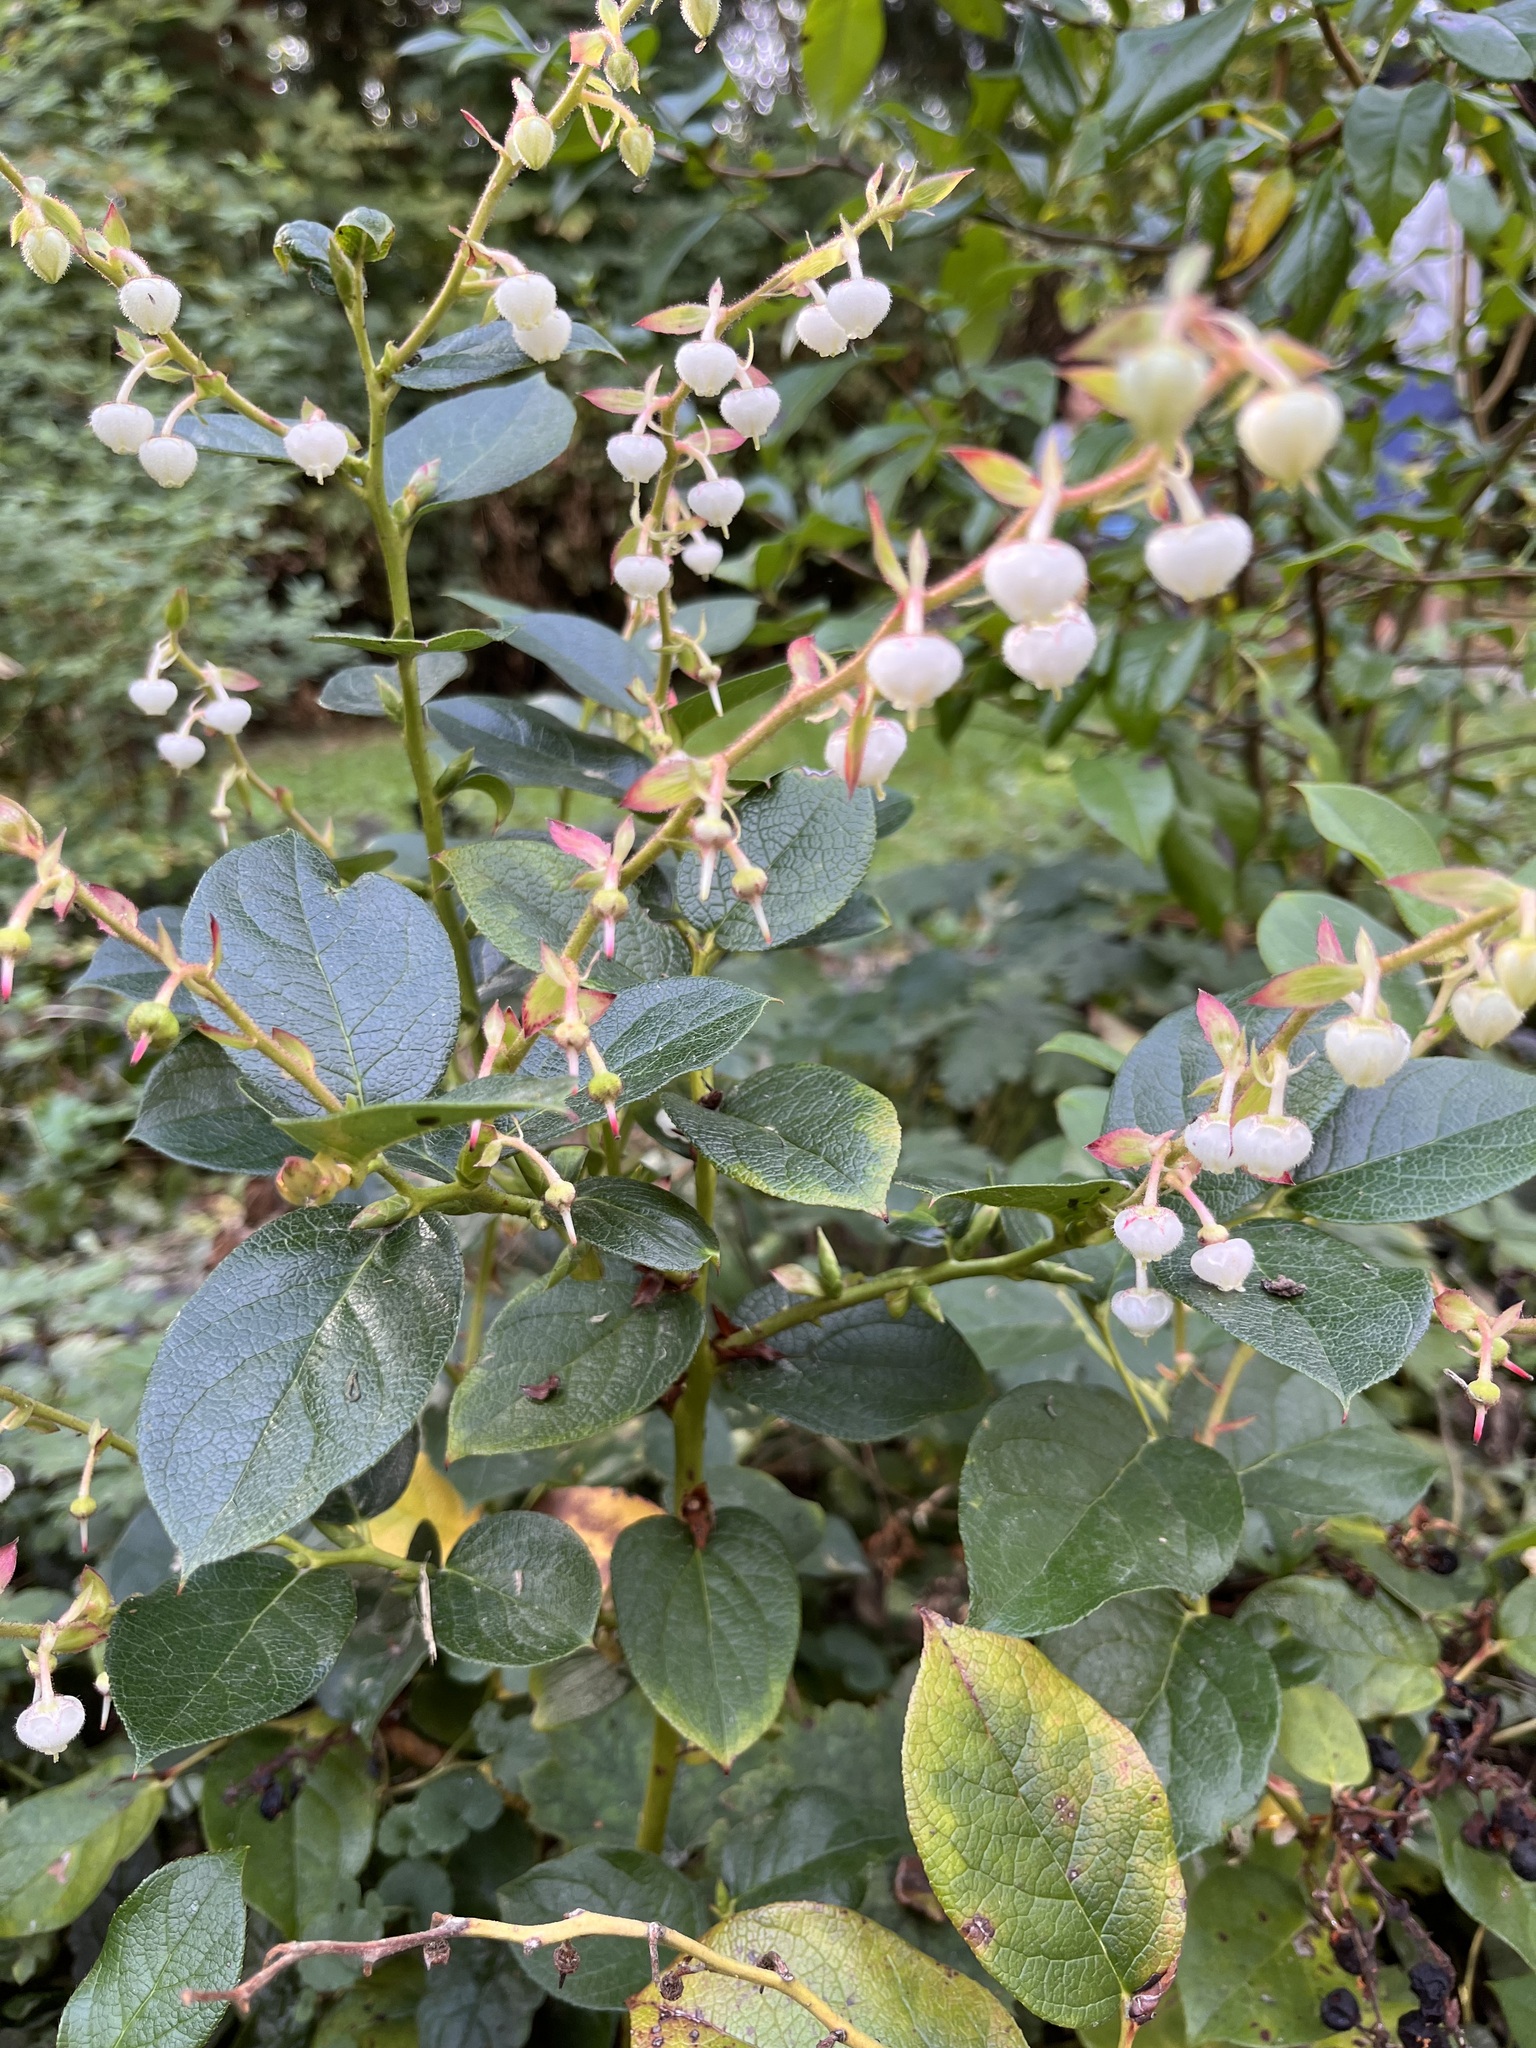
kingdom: Plantae
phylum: Tracheophyta
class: Magnoliopsida
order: Ericales
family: Ericaceae
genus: Gaultheria
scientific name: Gaultheria shallon
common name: Shallon
